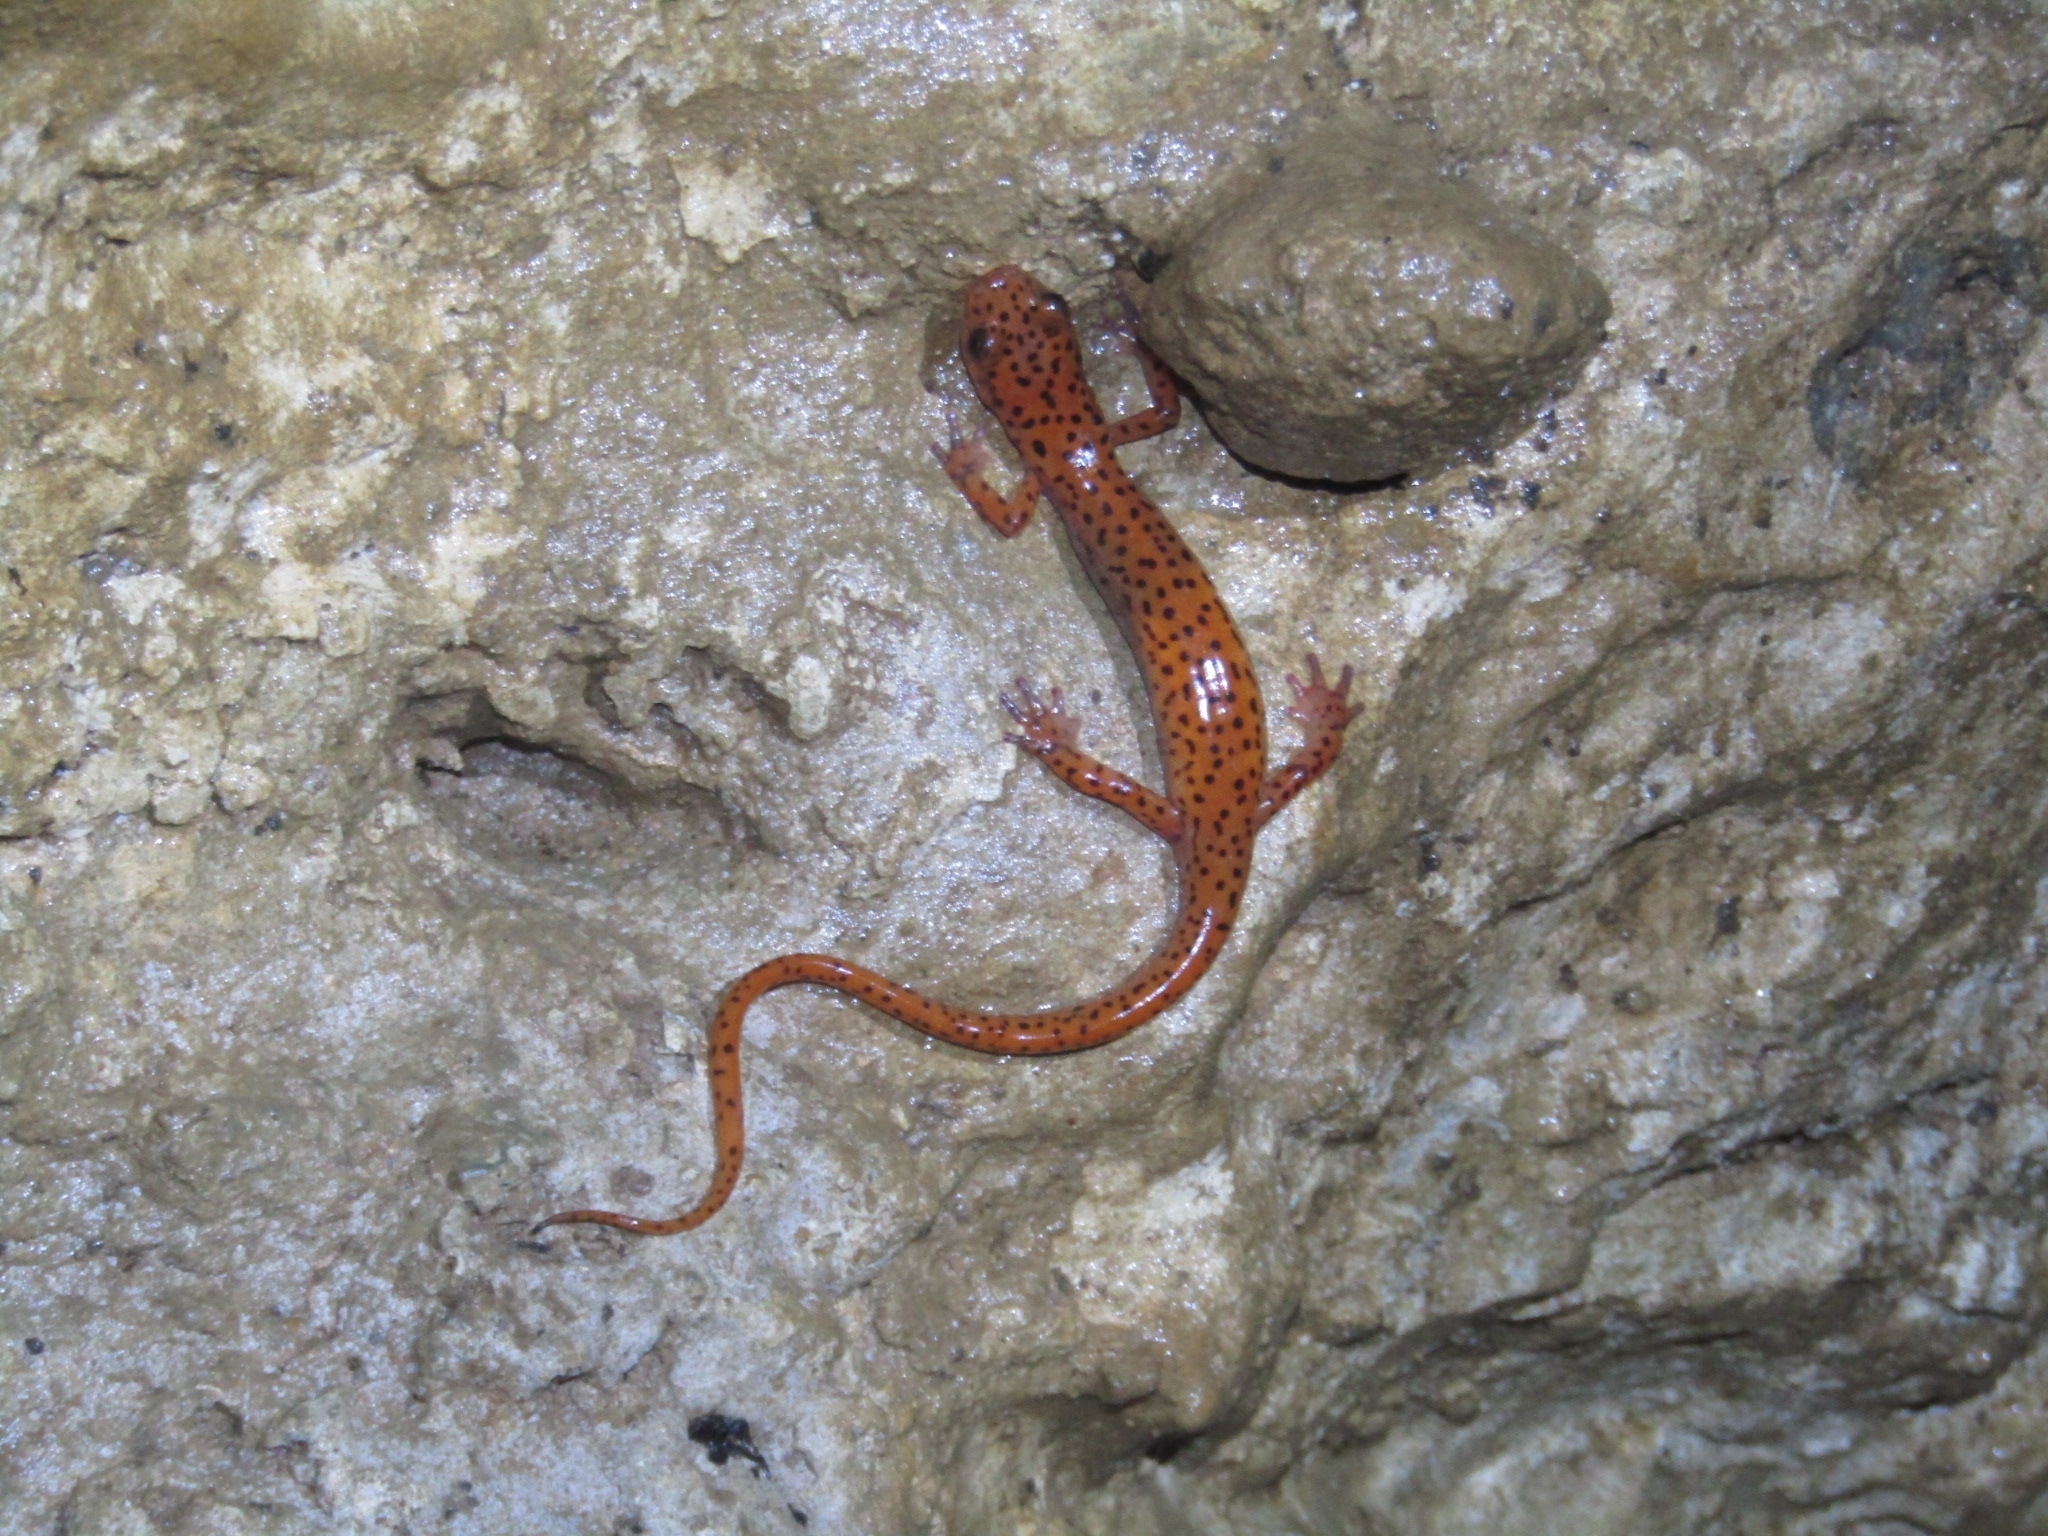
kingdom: Animalia
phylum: Chordata
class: Amphibia
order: Caudata
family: Plethodontidae
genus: Eurycea
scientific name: Eurycea lucifuga
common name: Cave salamander
